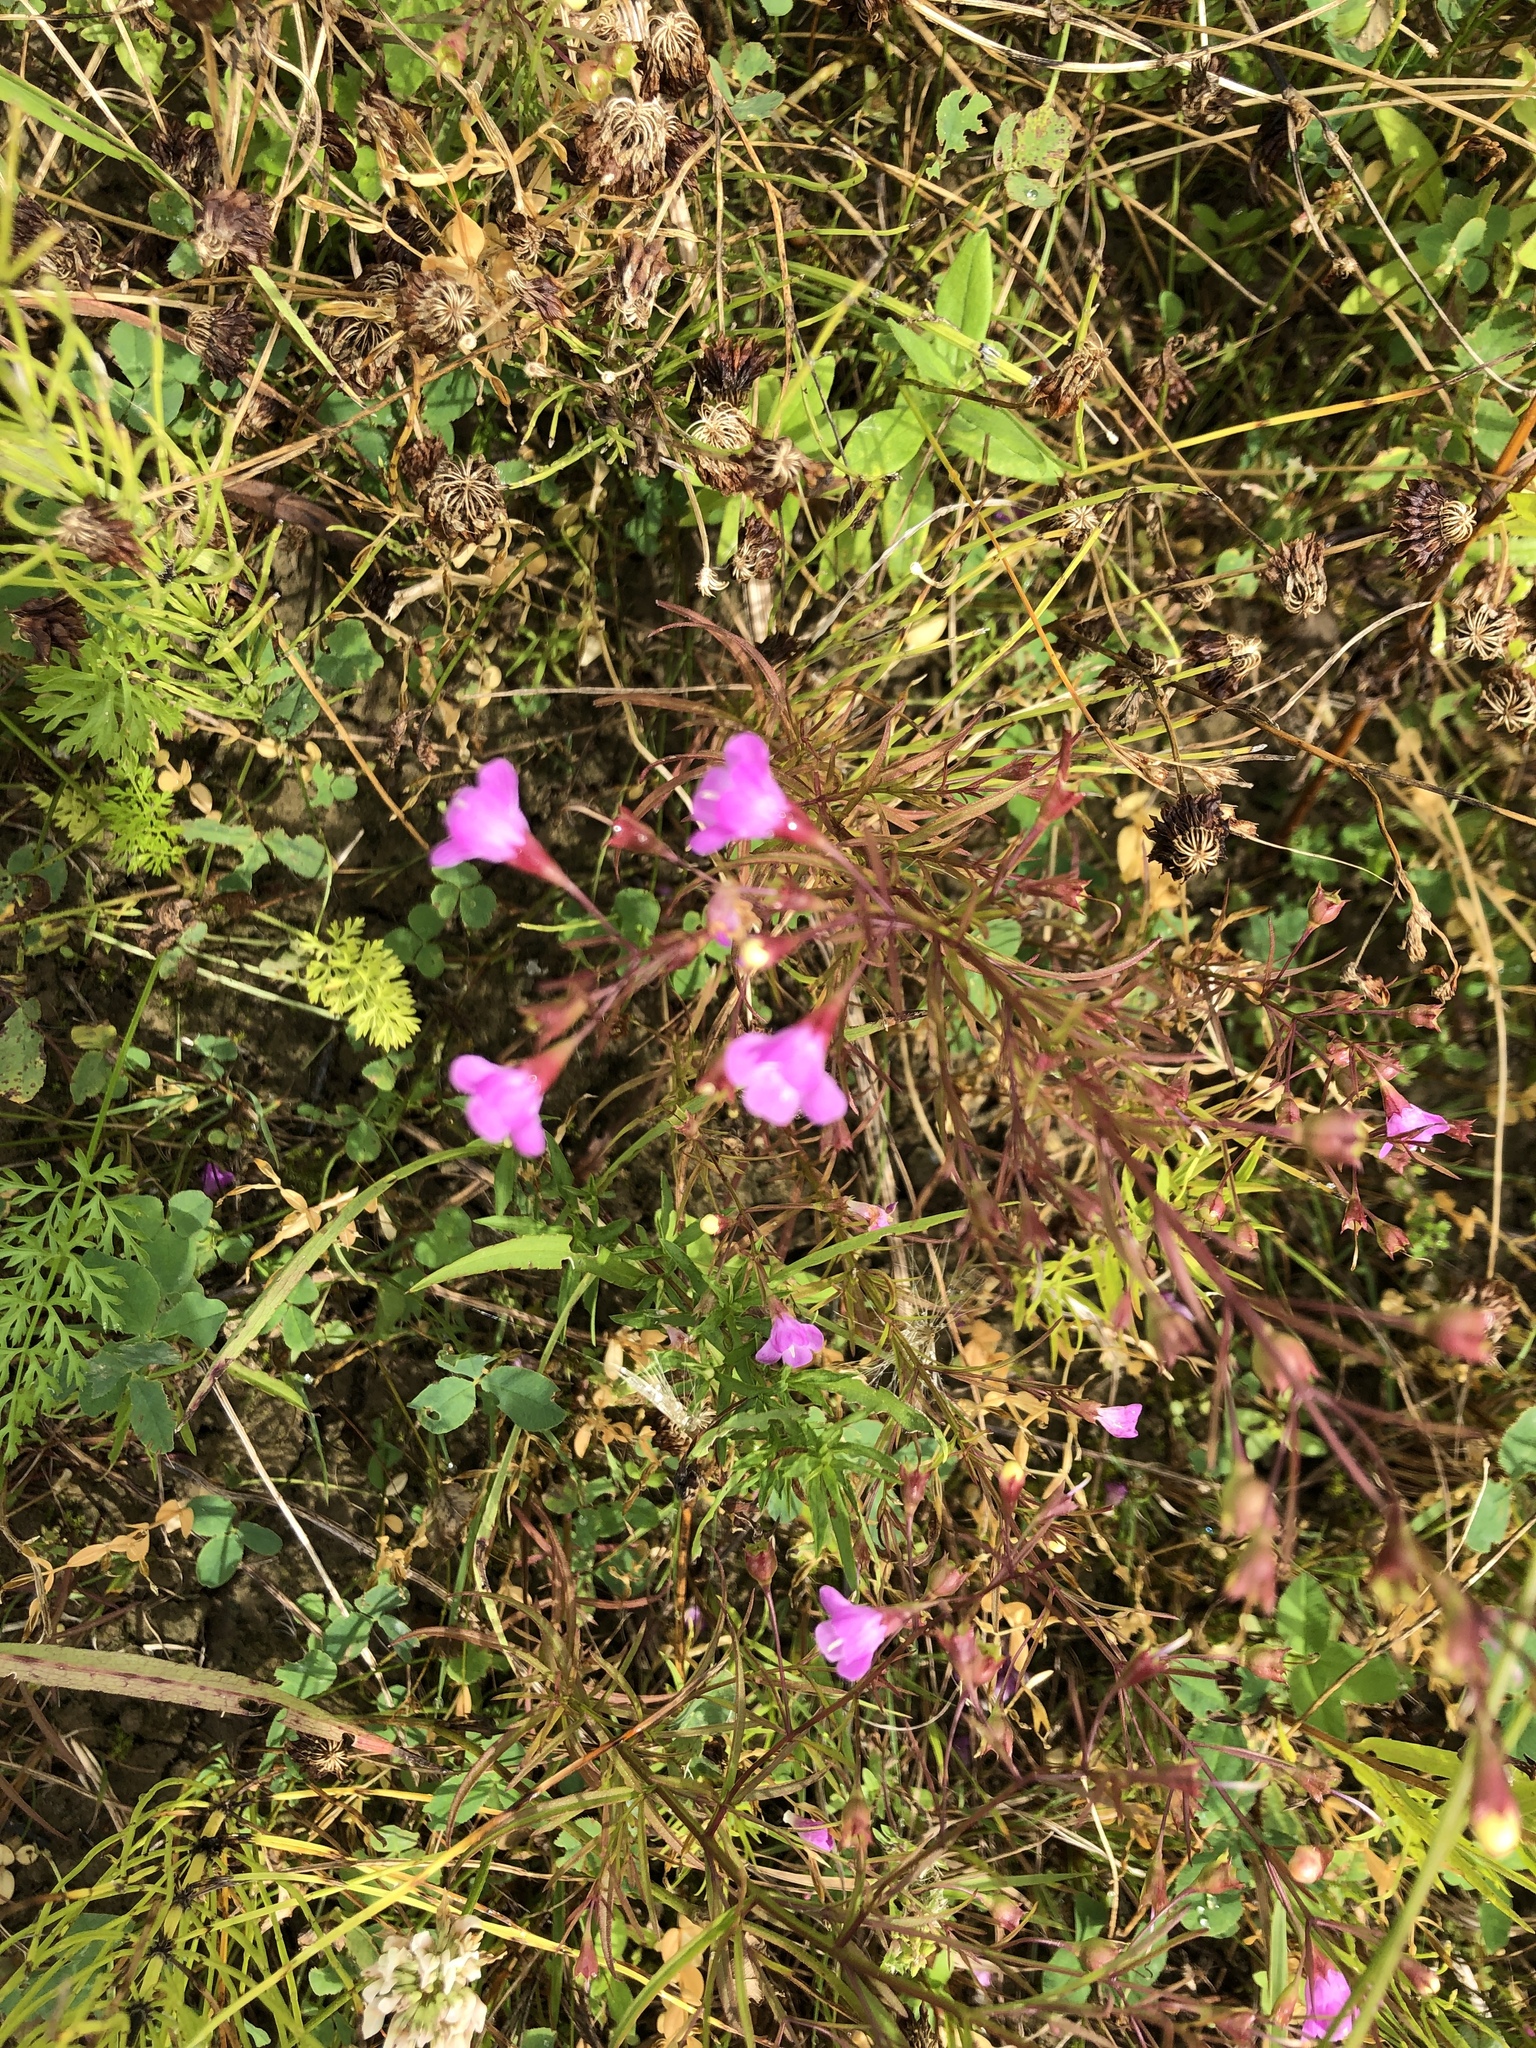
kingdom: Plantae
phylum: Tracheophyta
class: Magnoliopsida
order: Lamiales
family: Orobanchaceae
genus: Agalinis
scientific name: Agalinis tenuifolia
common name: Slender agalinis
